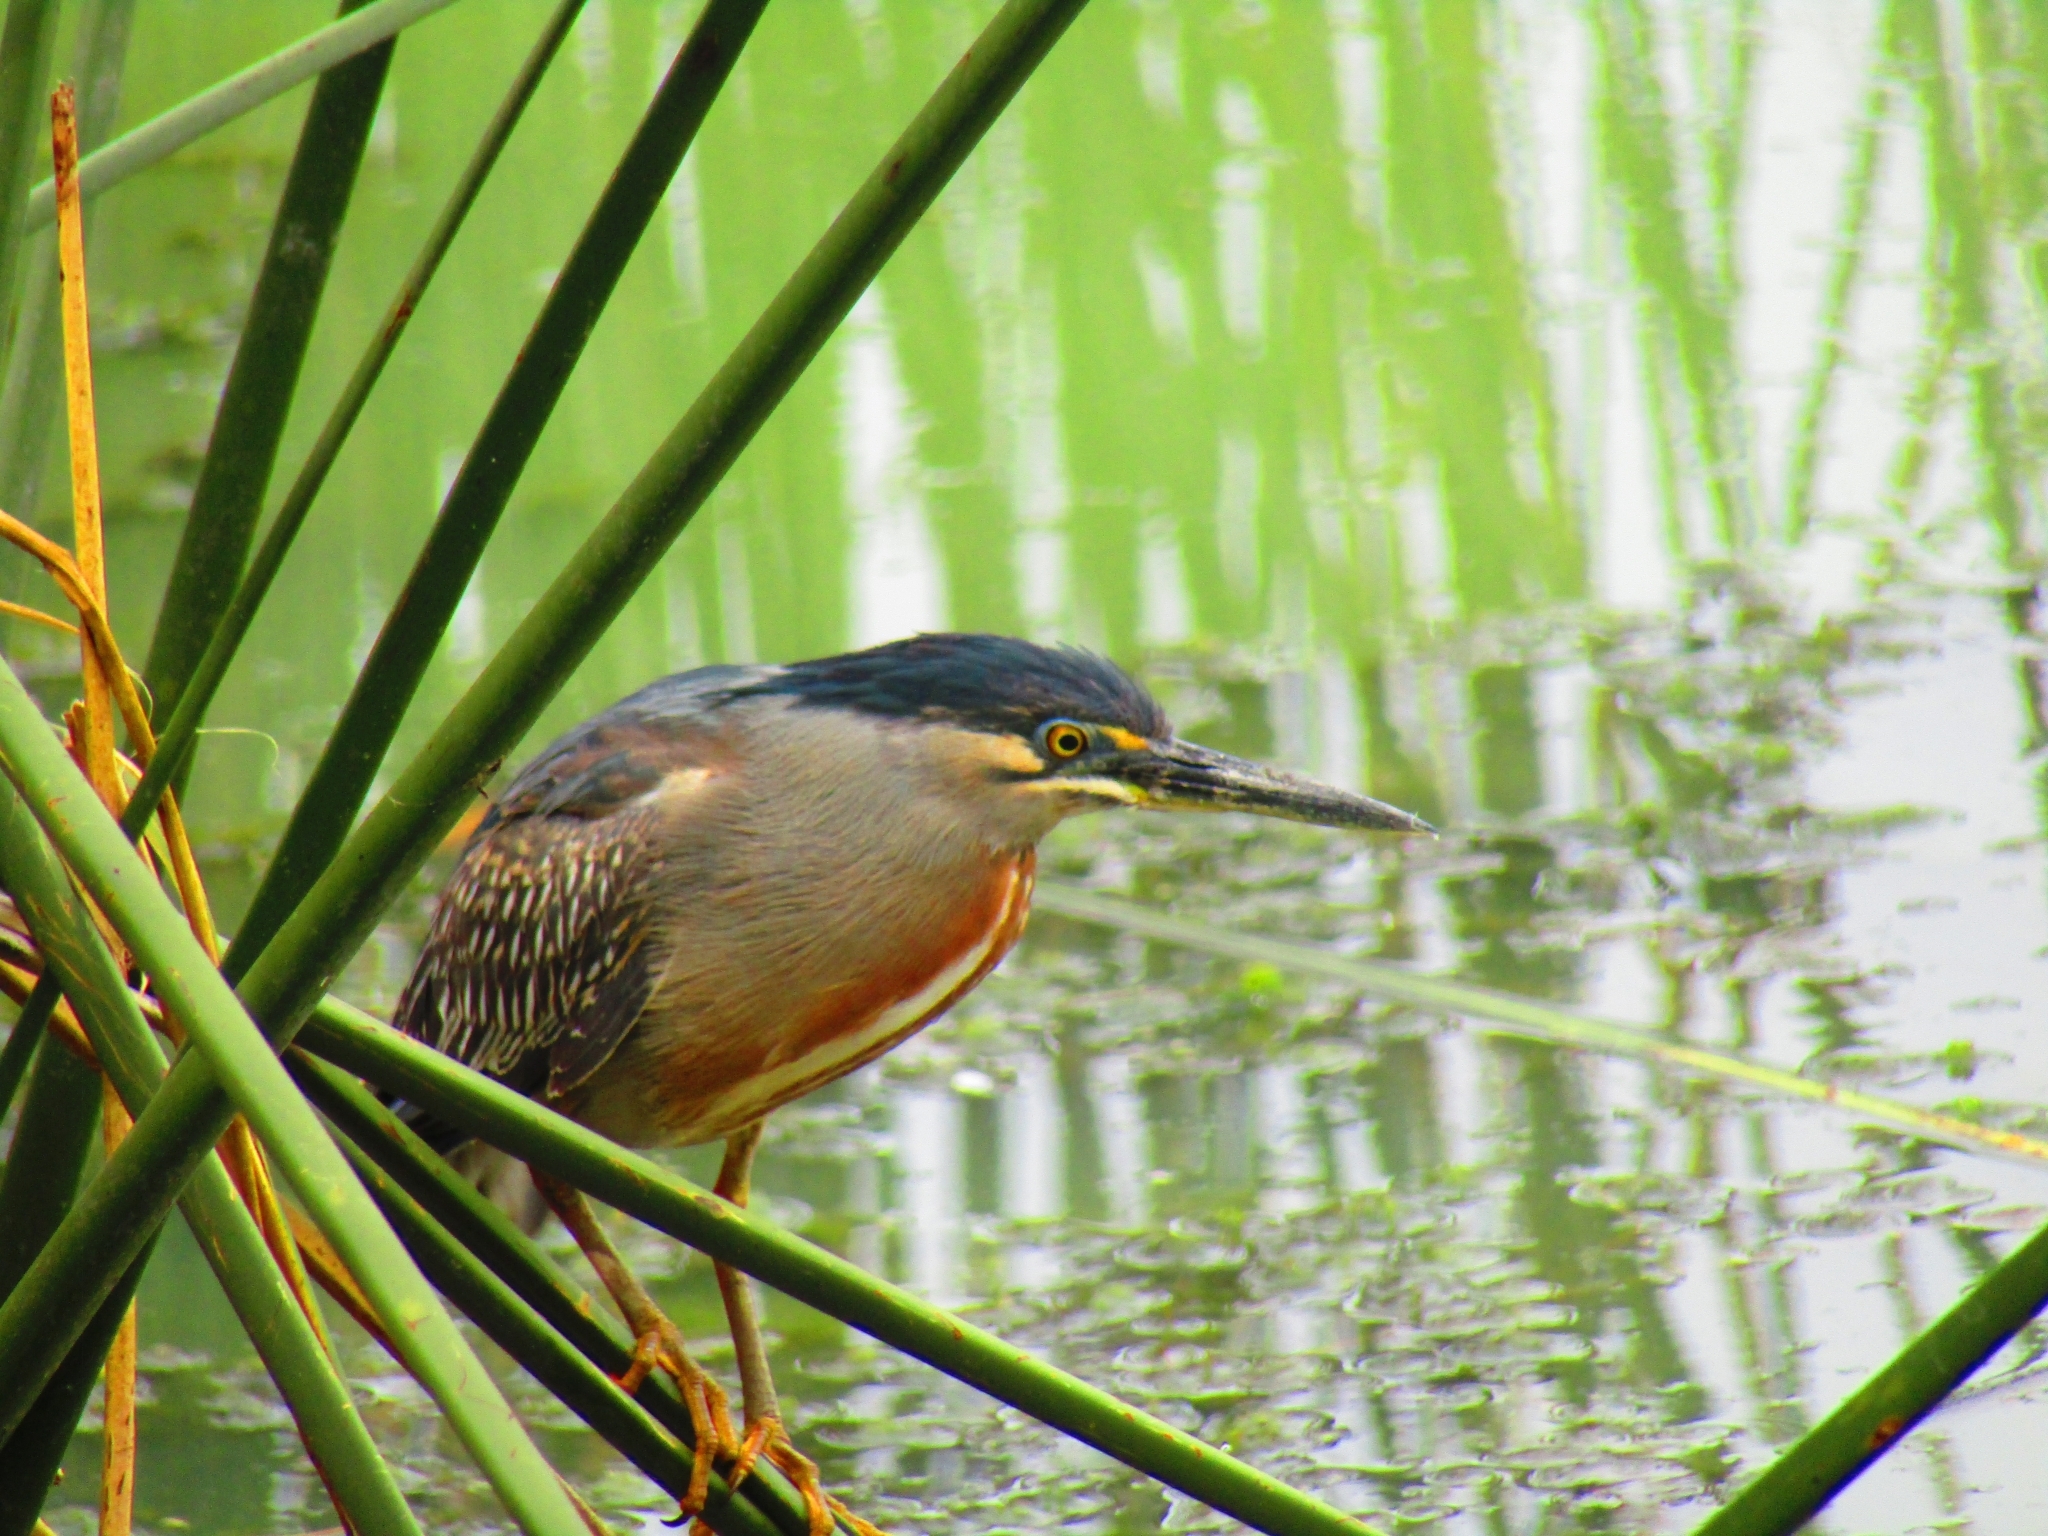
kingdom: Animalia
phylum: Chordata
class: Aves
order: Pelecaniformes
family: Ardeidae
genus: Butorides
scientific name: Butorides striata
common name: Striated heron
